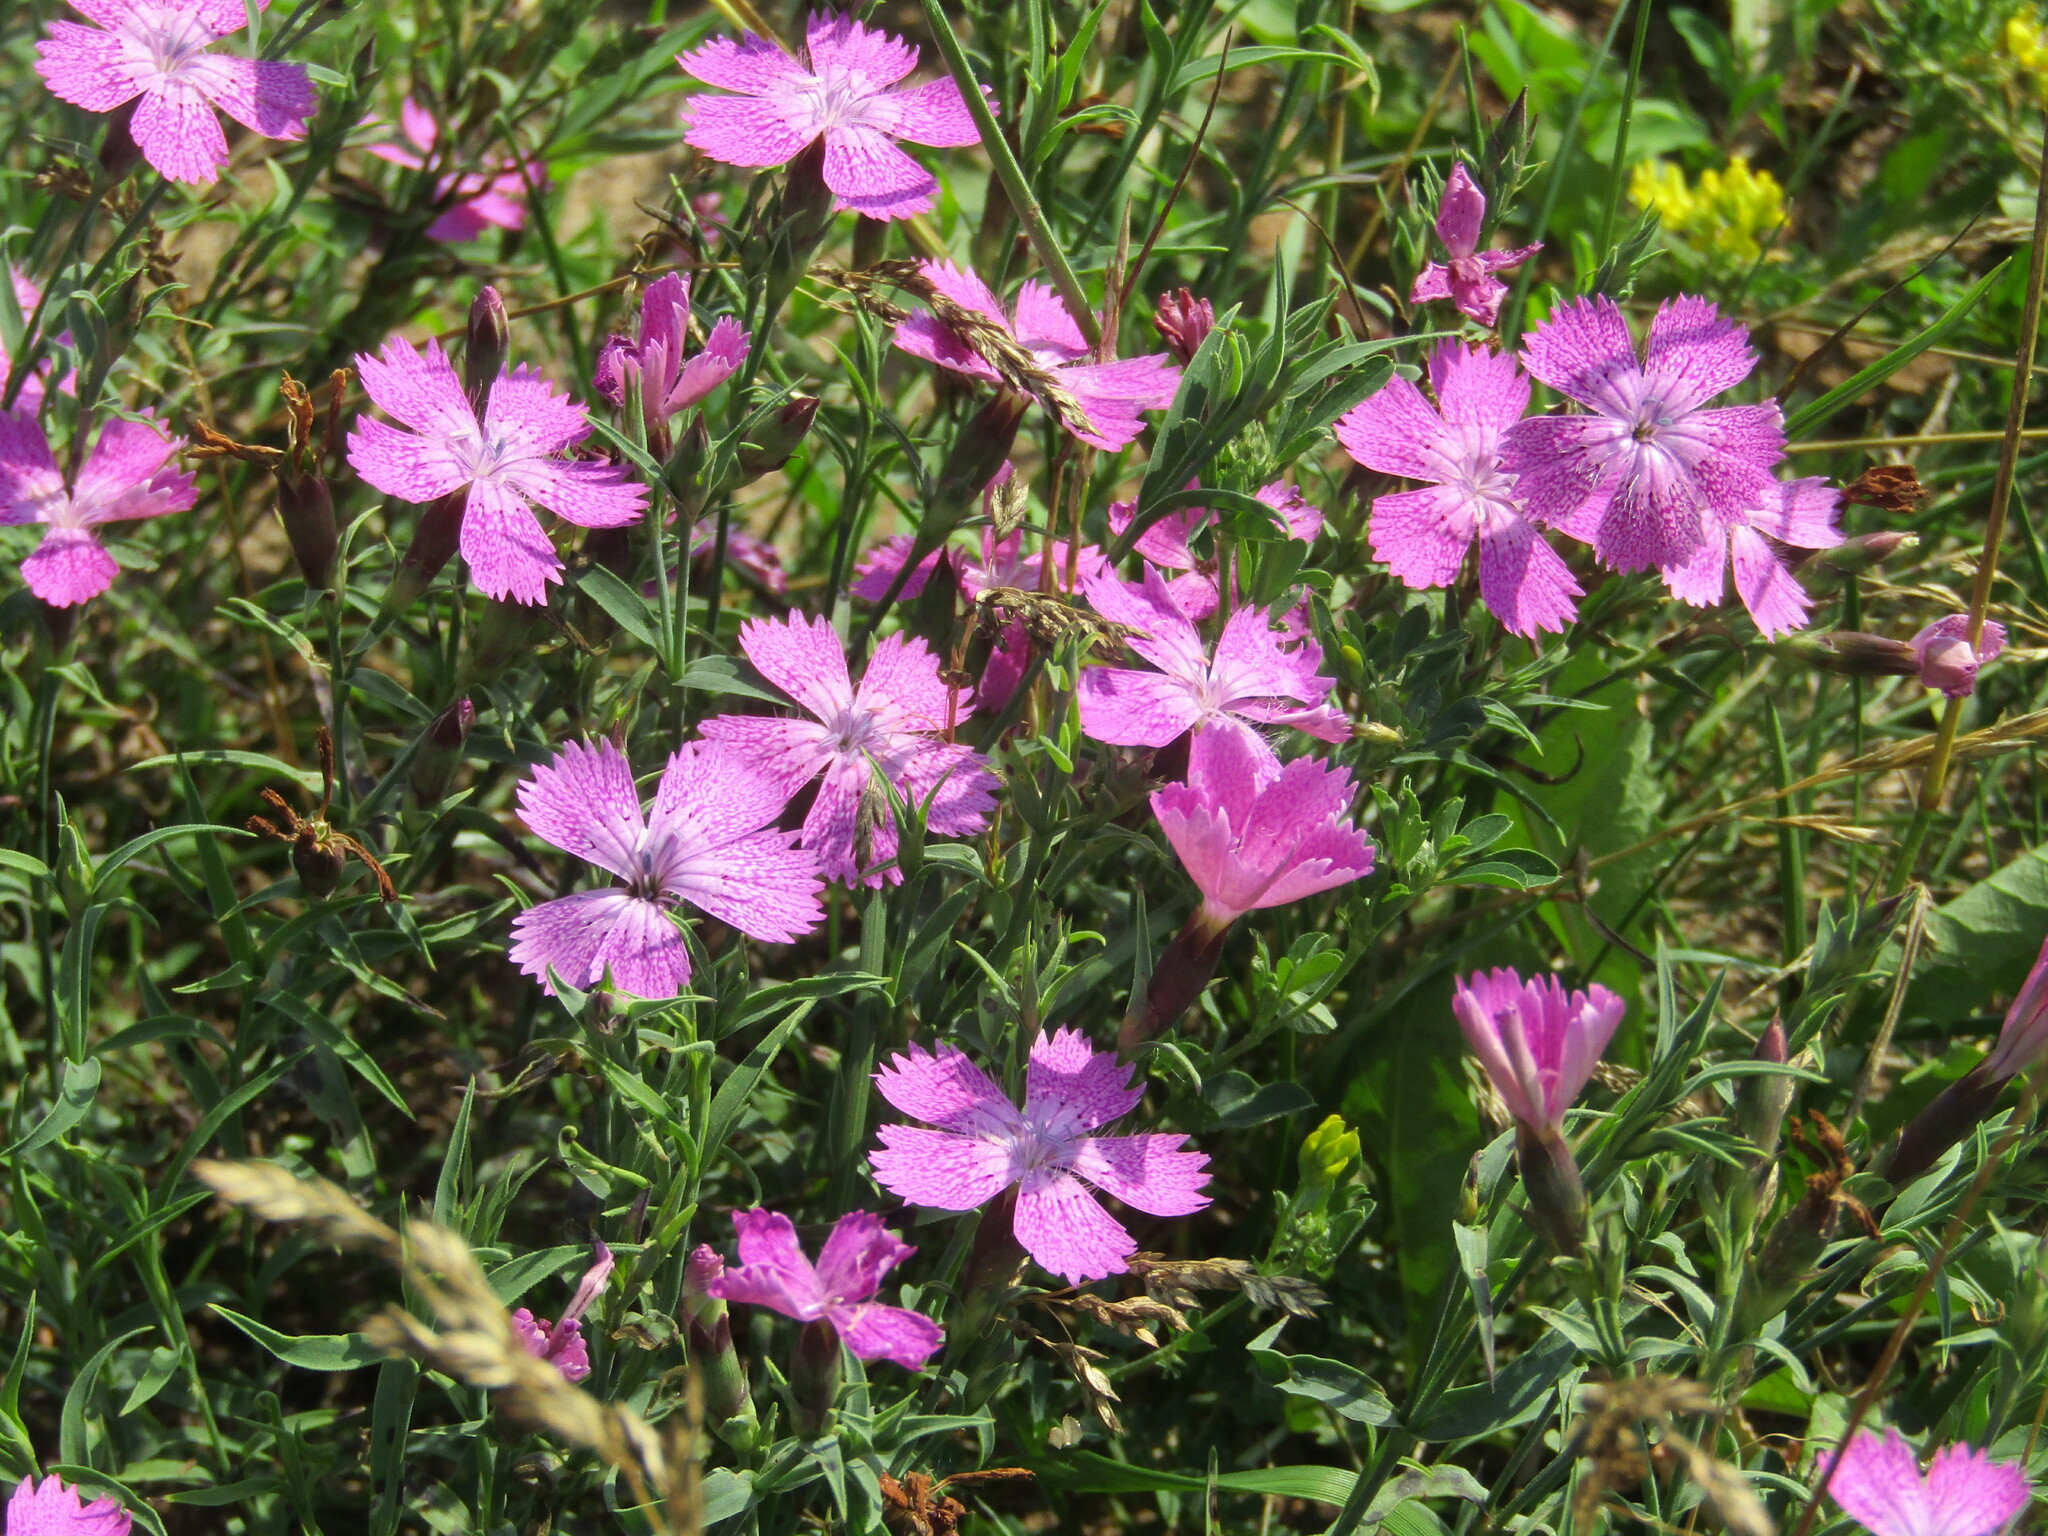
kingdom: Plantae
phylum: Tracheophyta
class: Magnoliopsida
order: Caryophyllales
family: Caryophyllaceae
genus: Dianthus
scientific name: Dianthus chinensis
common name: Rainbow pink
